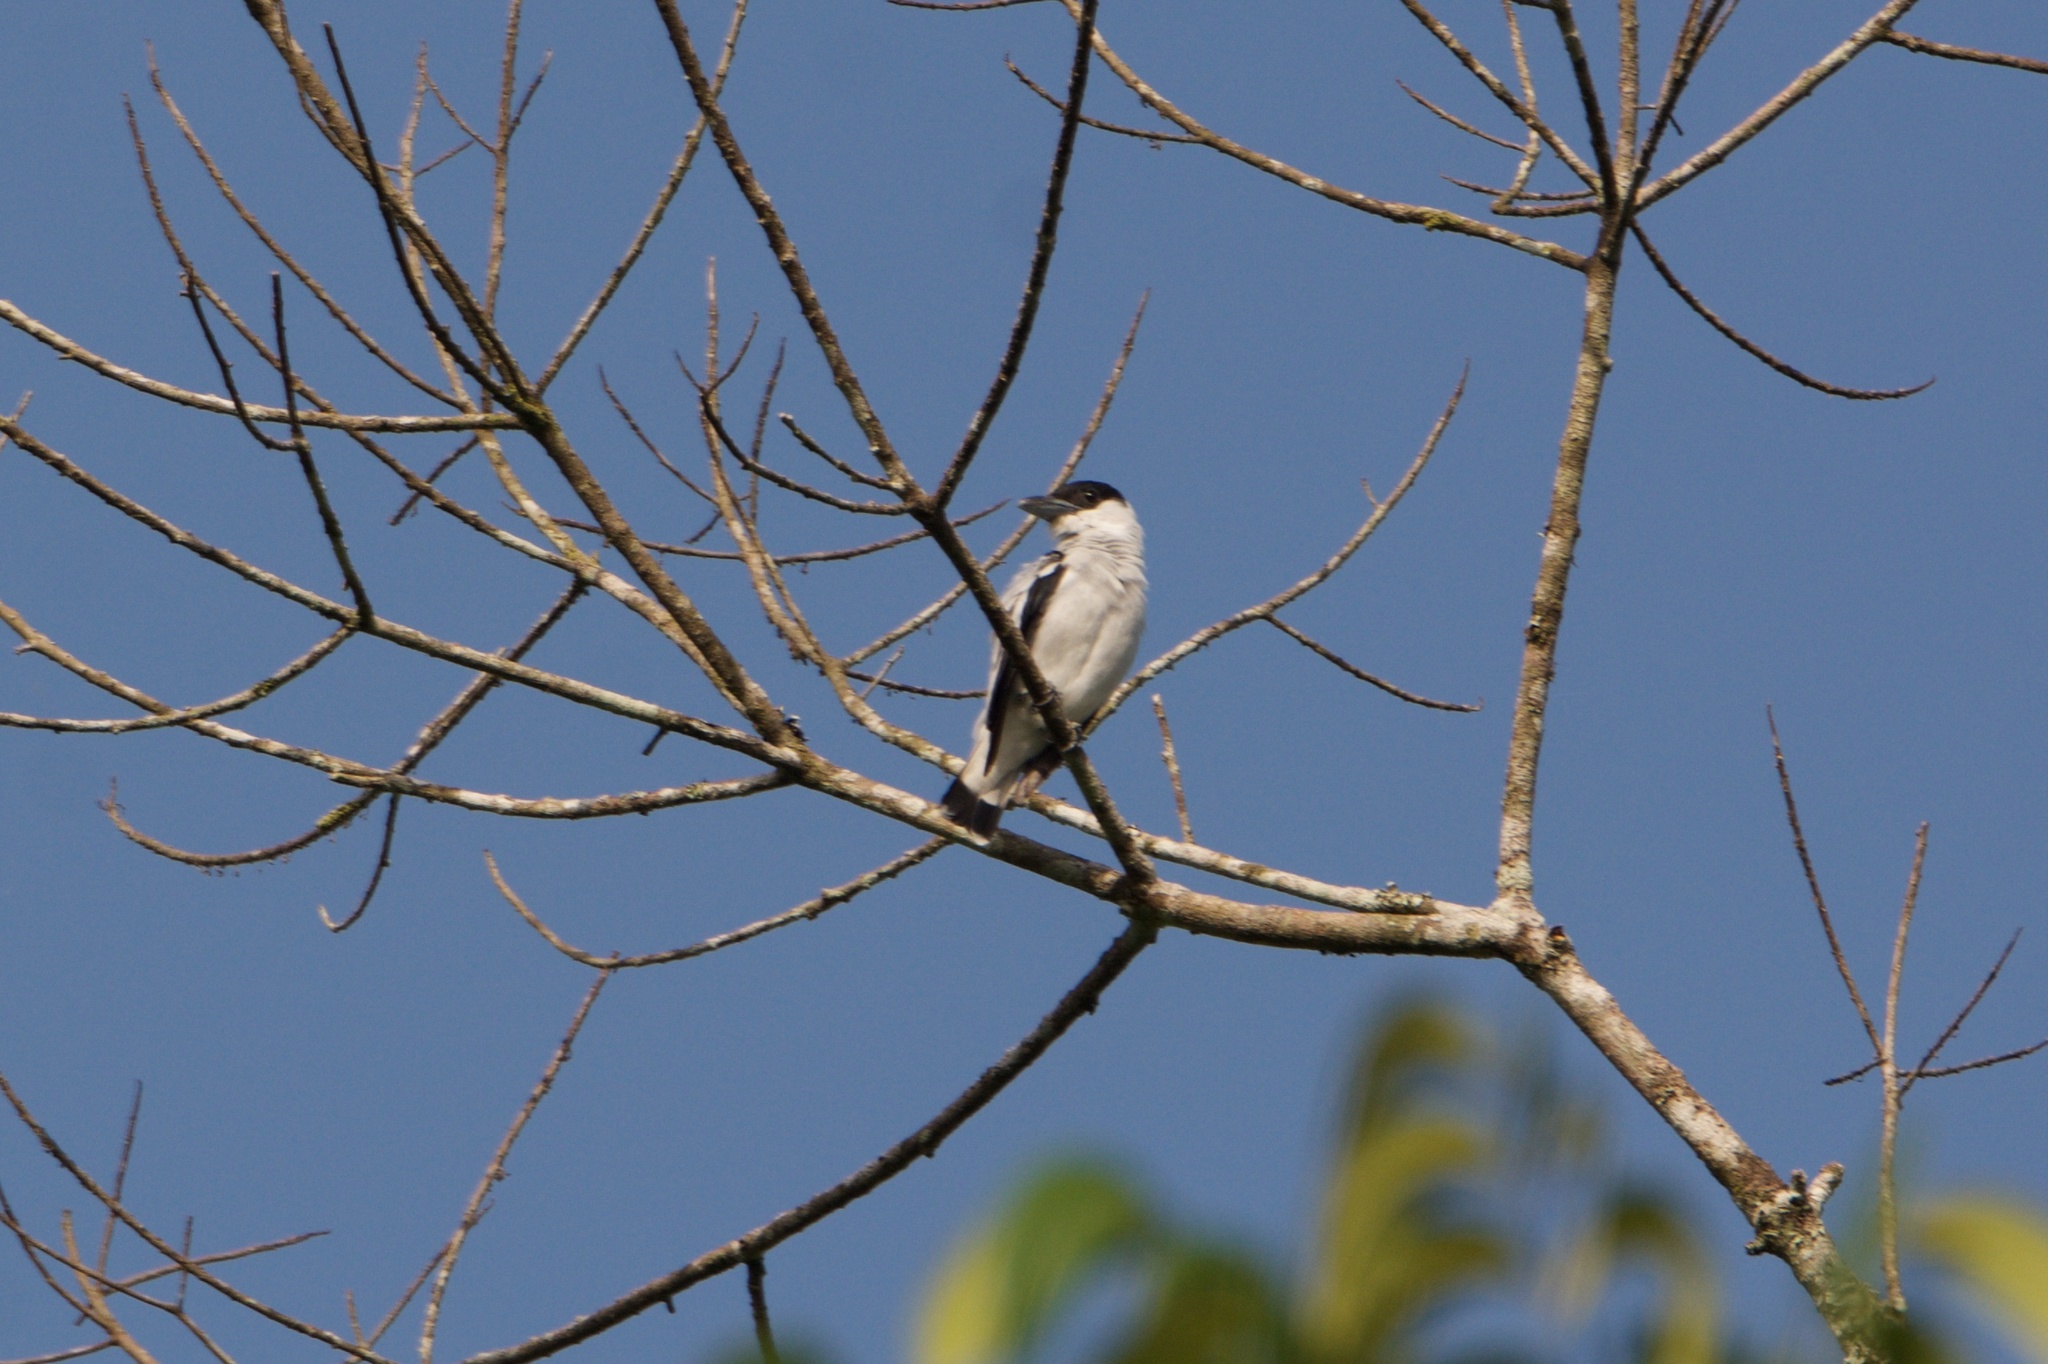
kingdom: Animalia
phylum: Chordata
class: Aves
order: Passeriformes
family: Cotingidae
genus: Tityra
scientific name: Tityra inquisitor
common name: Black-crowned tityra
